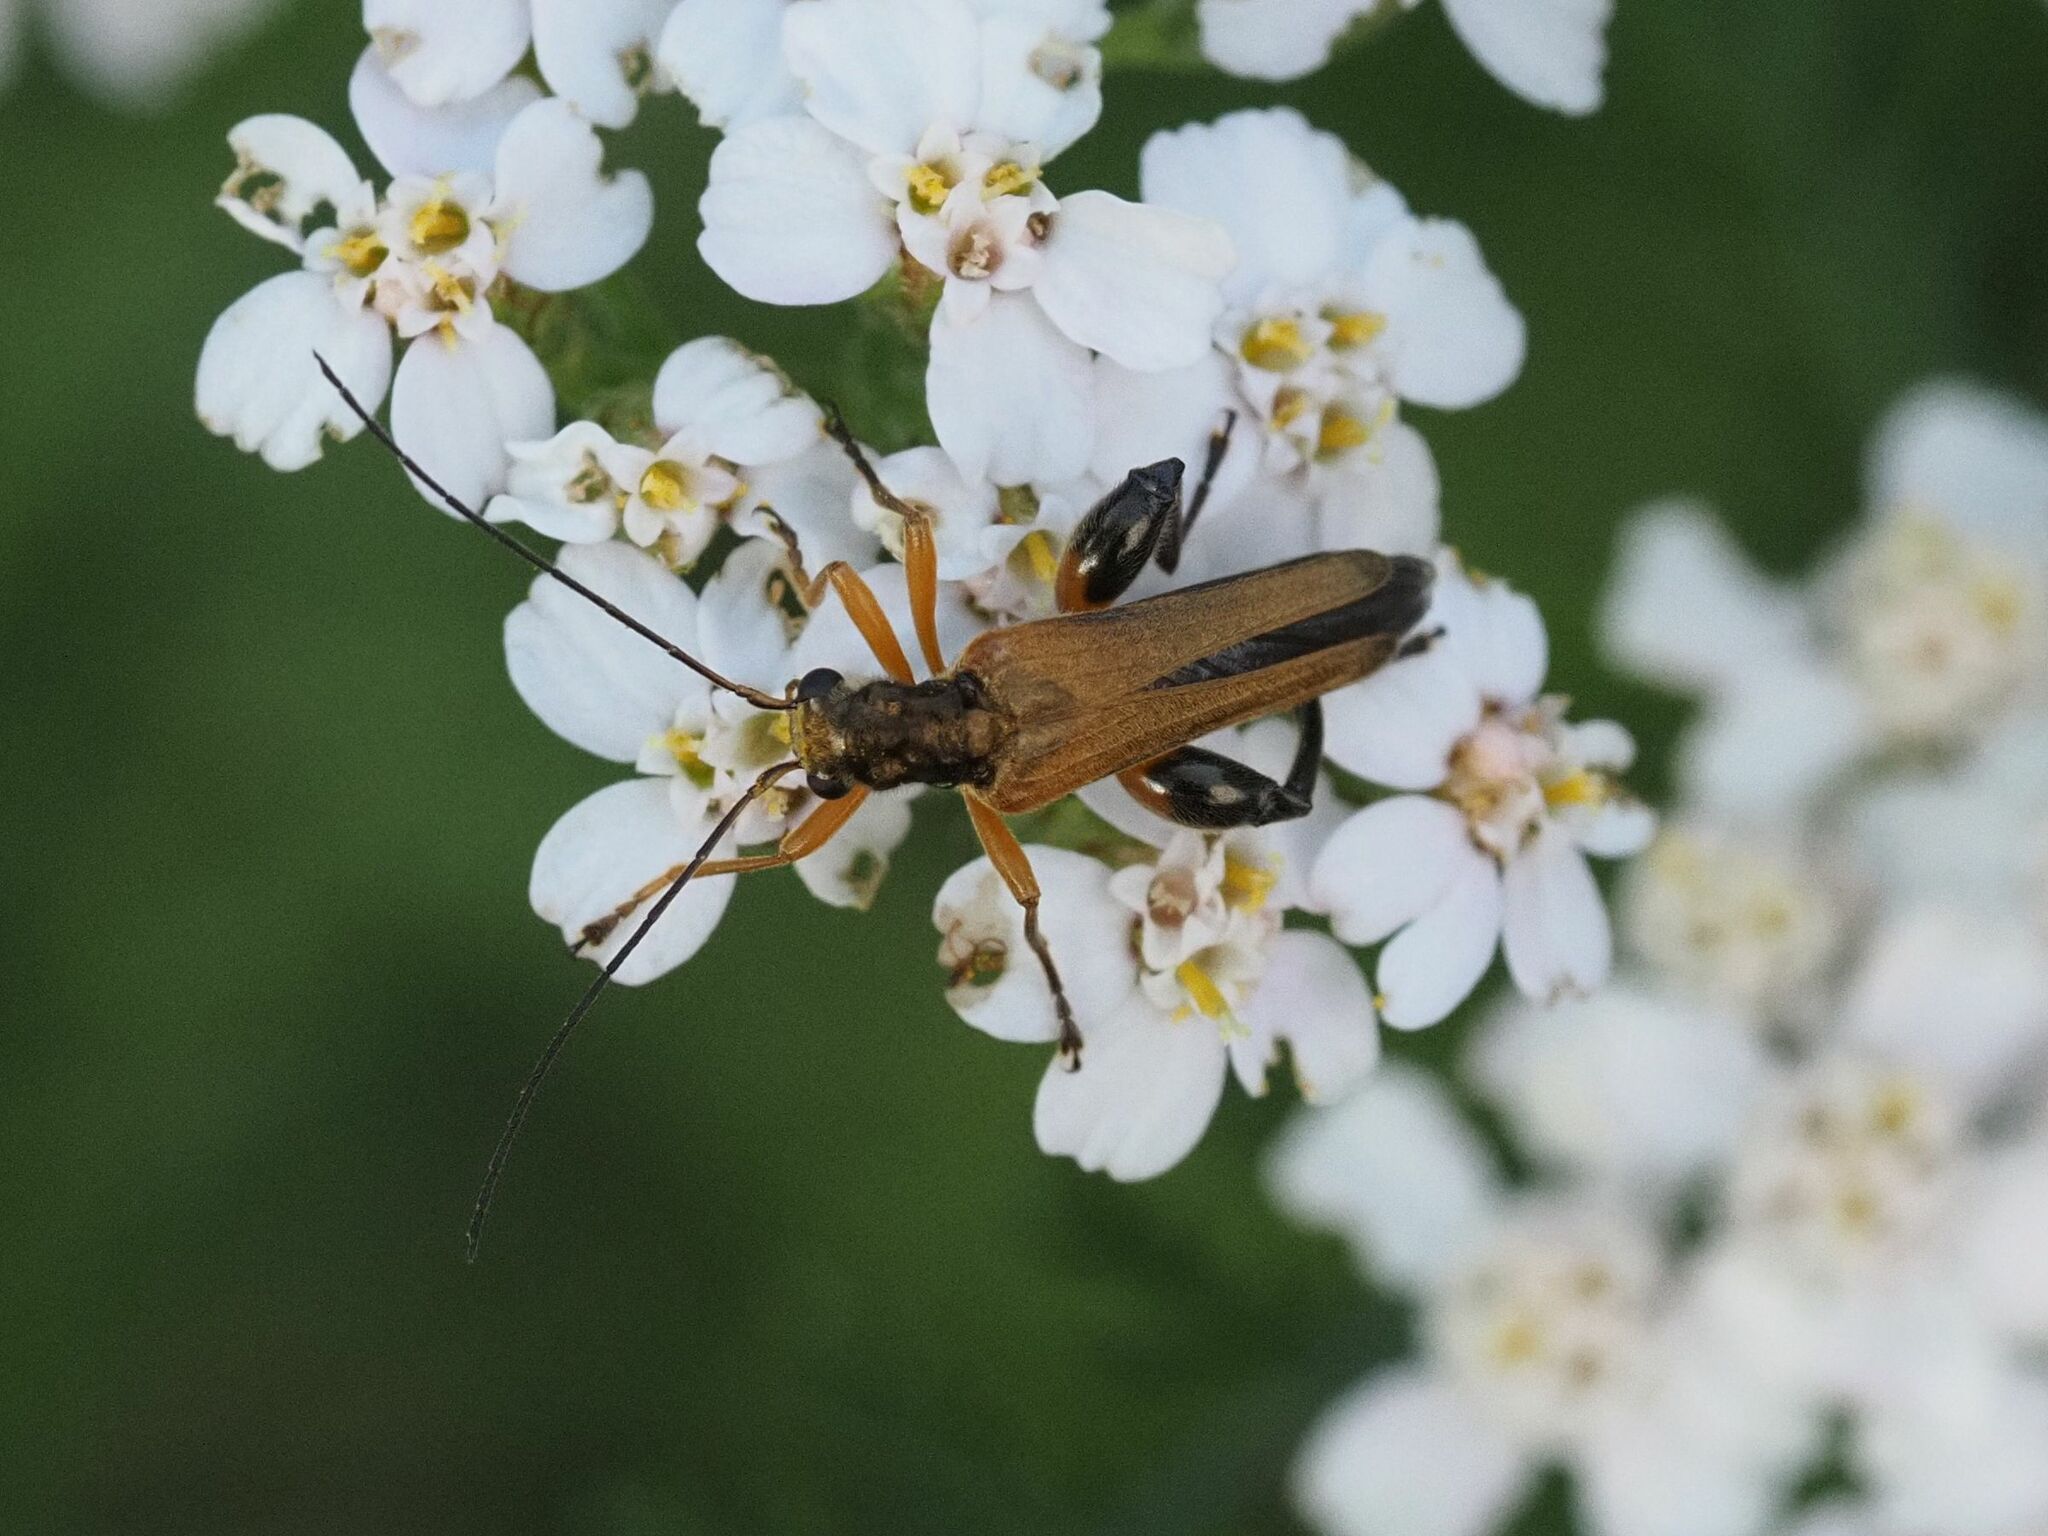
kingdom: Animalia
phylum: Arthropoda
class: Insecta
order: Coleoptera
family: Oedemeridae
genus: Oedemera
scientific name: Oedemera podagrariae
